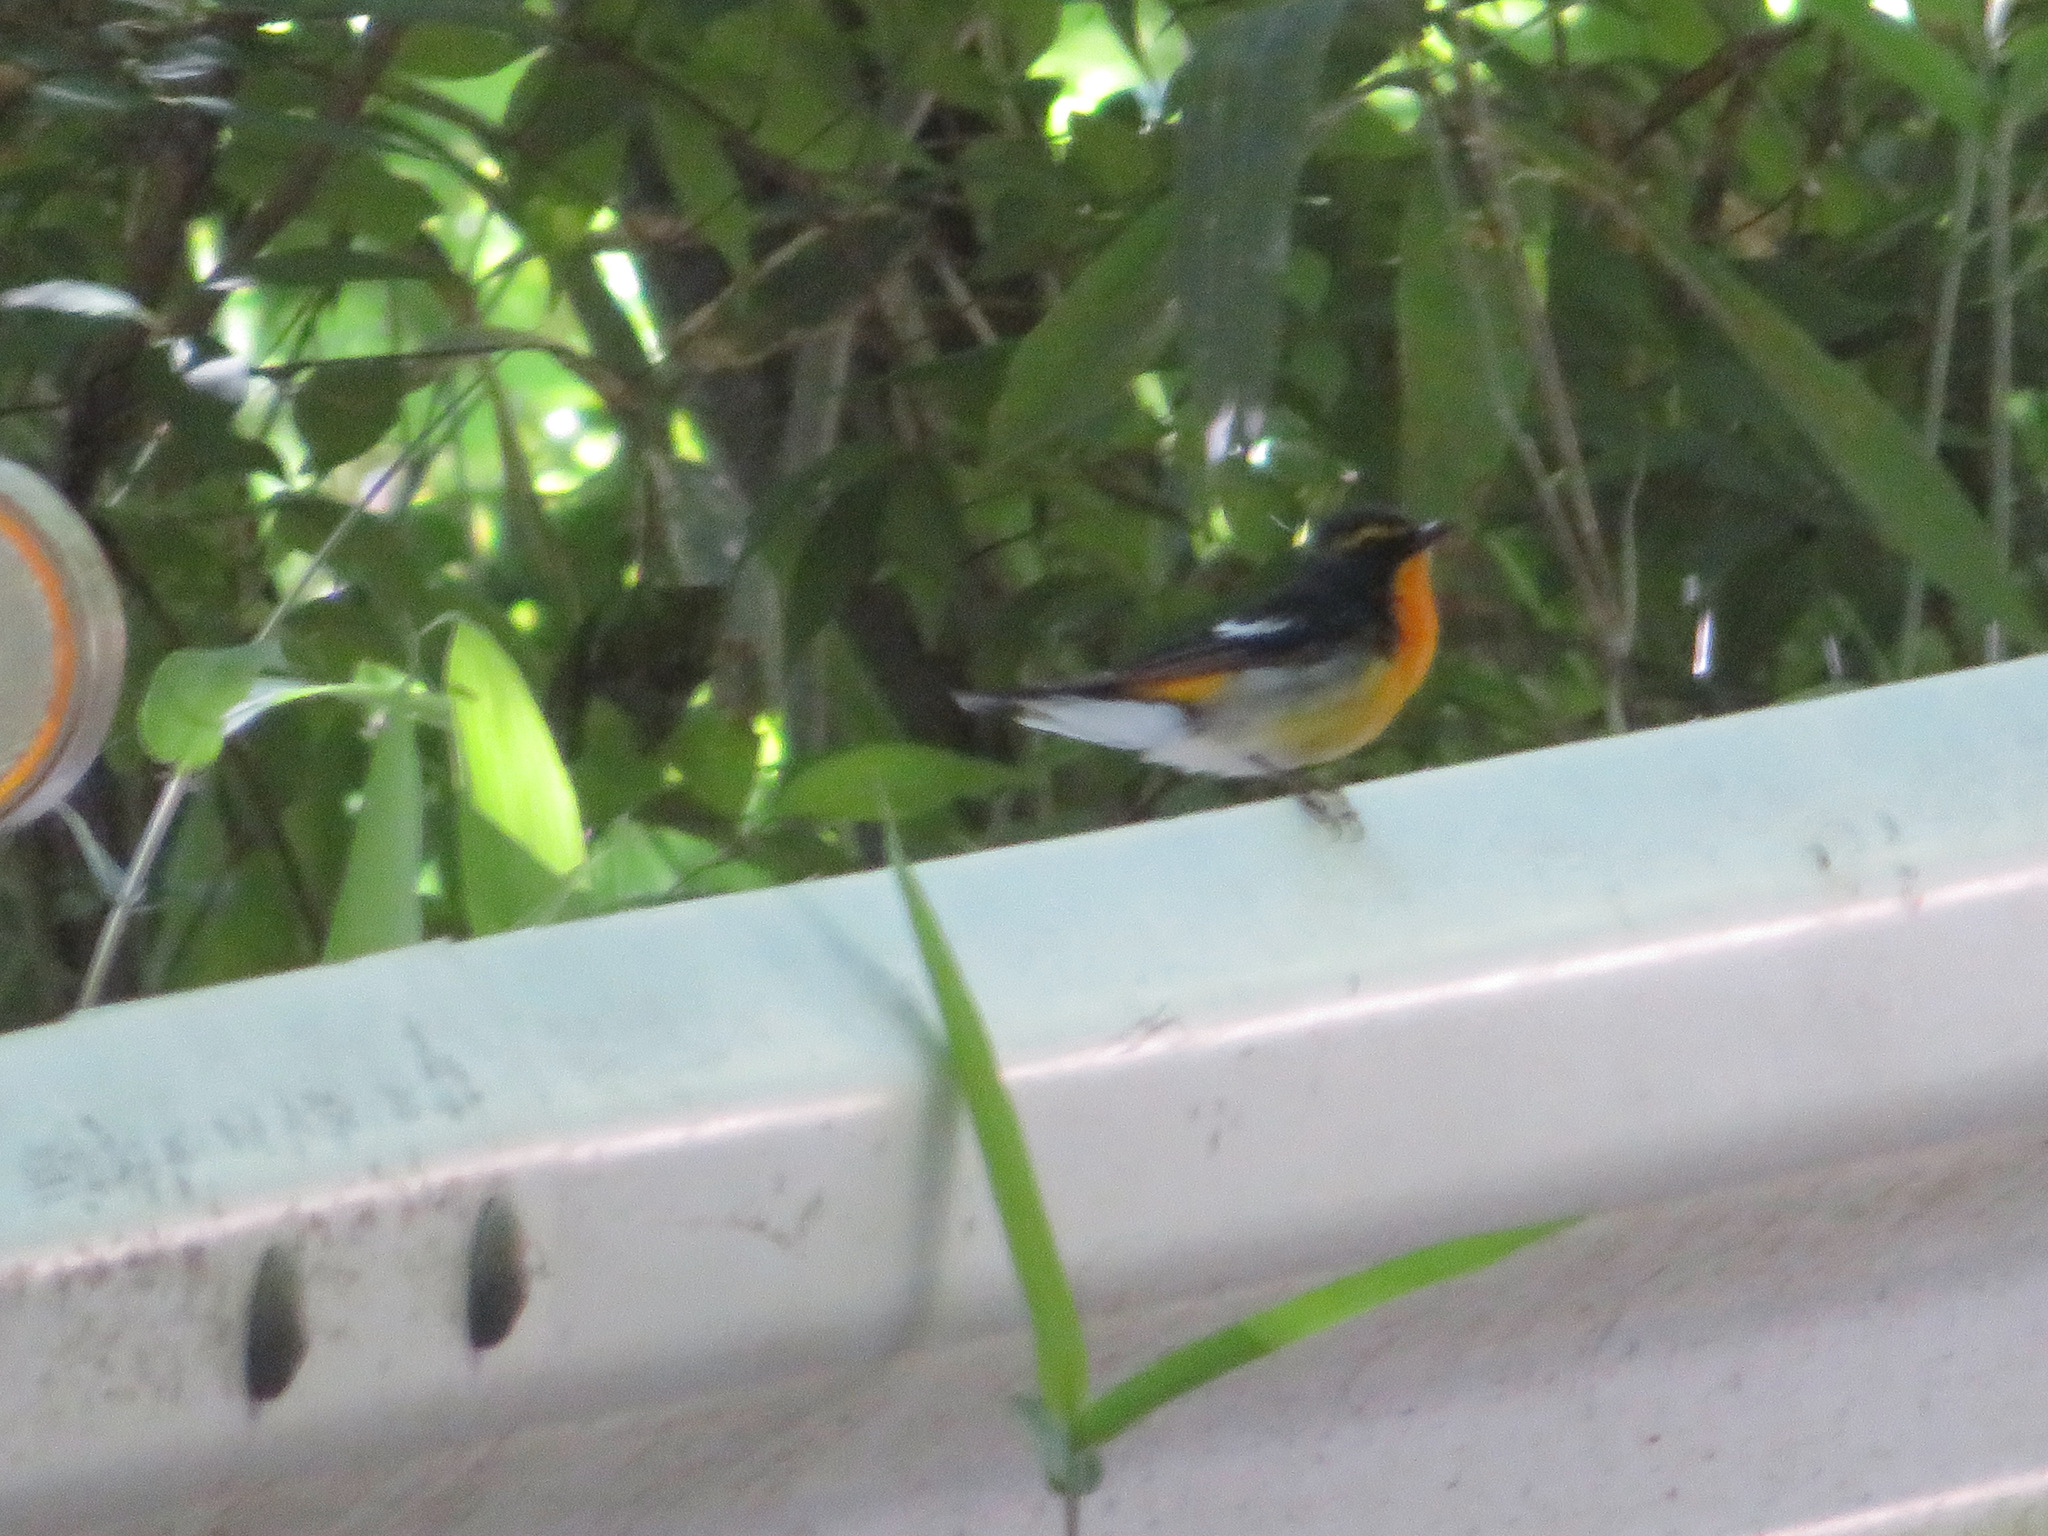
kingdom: Animalia
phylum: Chordata
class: Aves
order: Passeriformes
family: Muscicapidae
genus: Ficedula
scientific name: Ficedula narcissina
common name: Narcissus flycatcher
